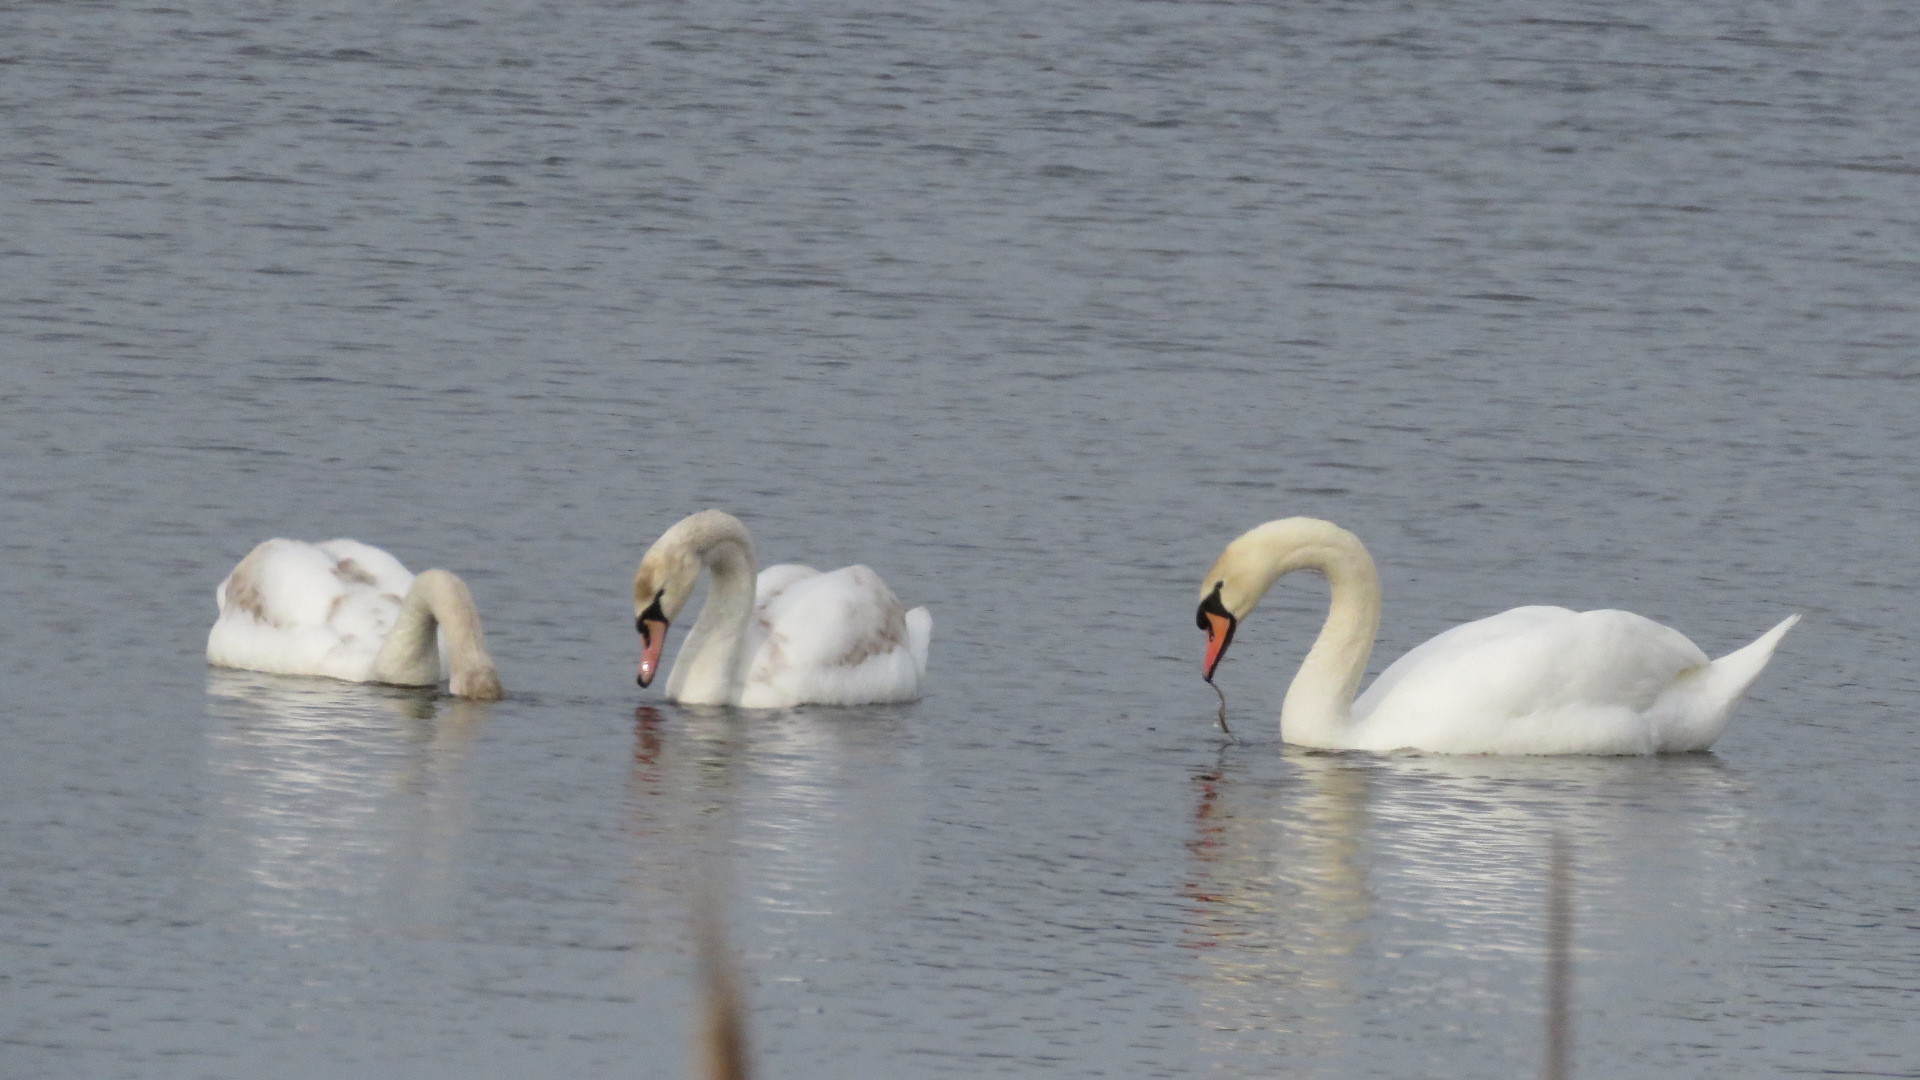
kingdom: Animalia
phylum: Chordata
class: Aves
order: Anseriformes
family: Anatidae
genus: Cygnus
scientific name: Cygnus olor
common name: Mute swan
